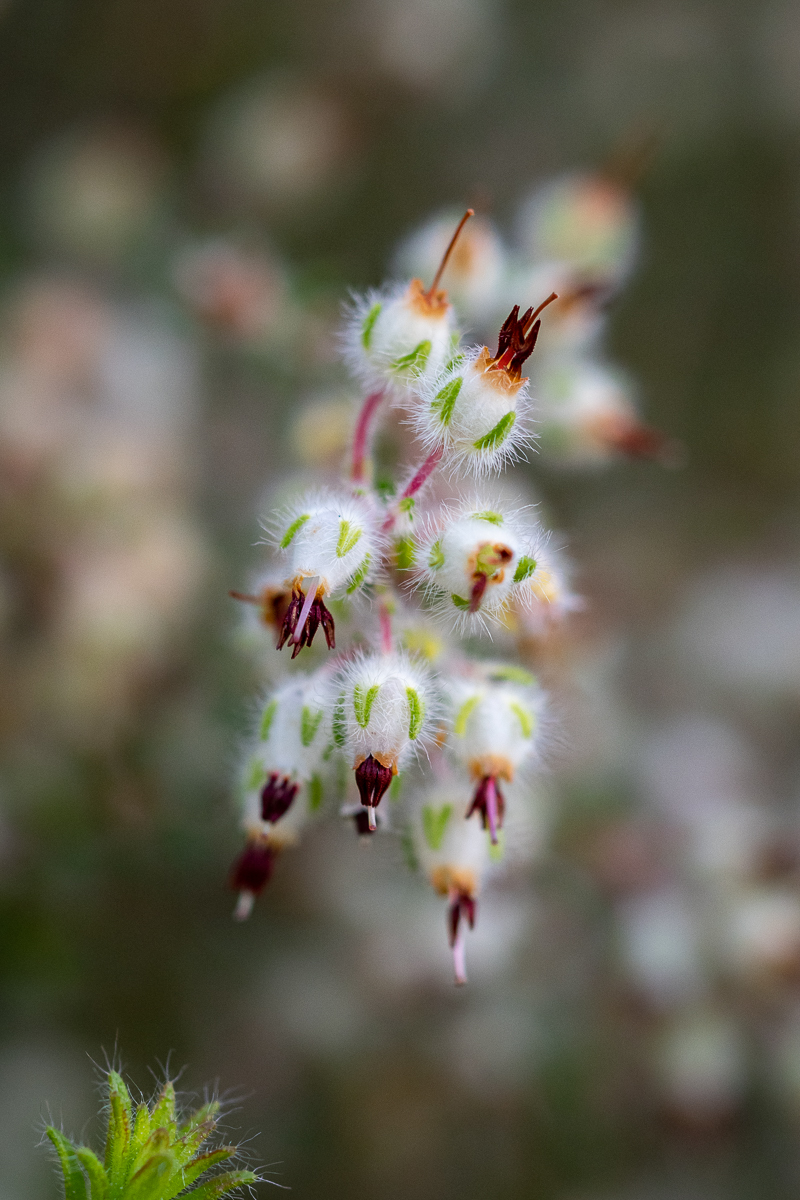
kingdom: Plantae
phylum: Tracheophyta
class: Magnoliopsida
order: Ericales
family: Ericaceae
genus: Erica
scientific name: Erica villosa
